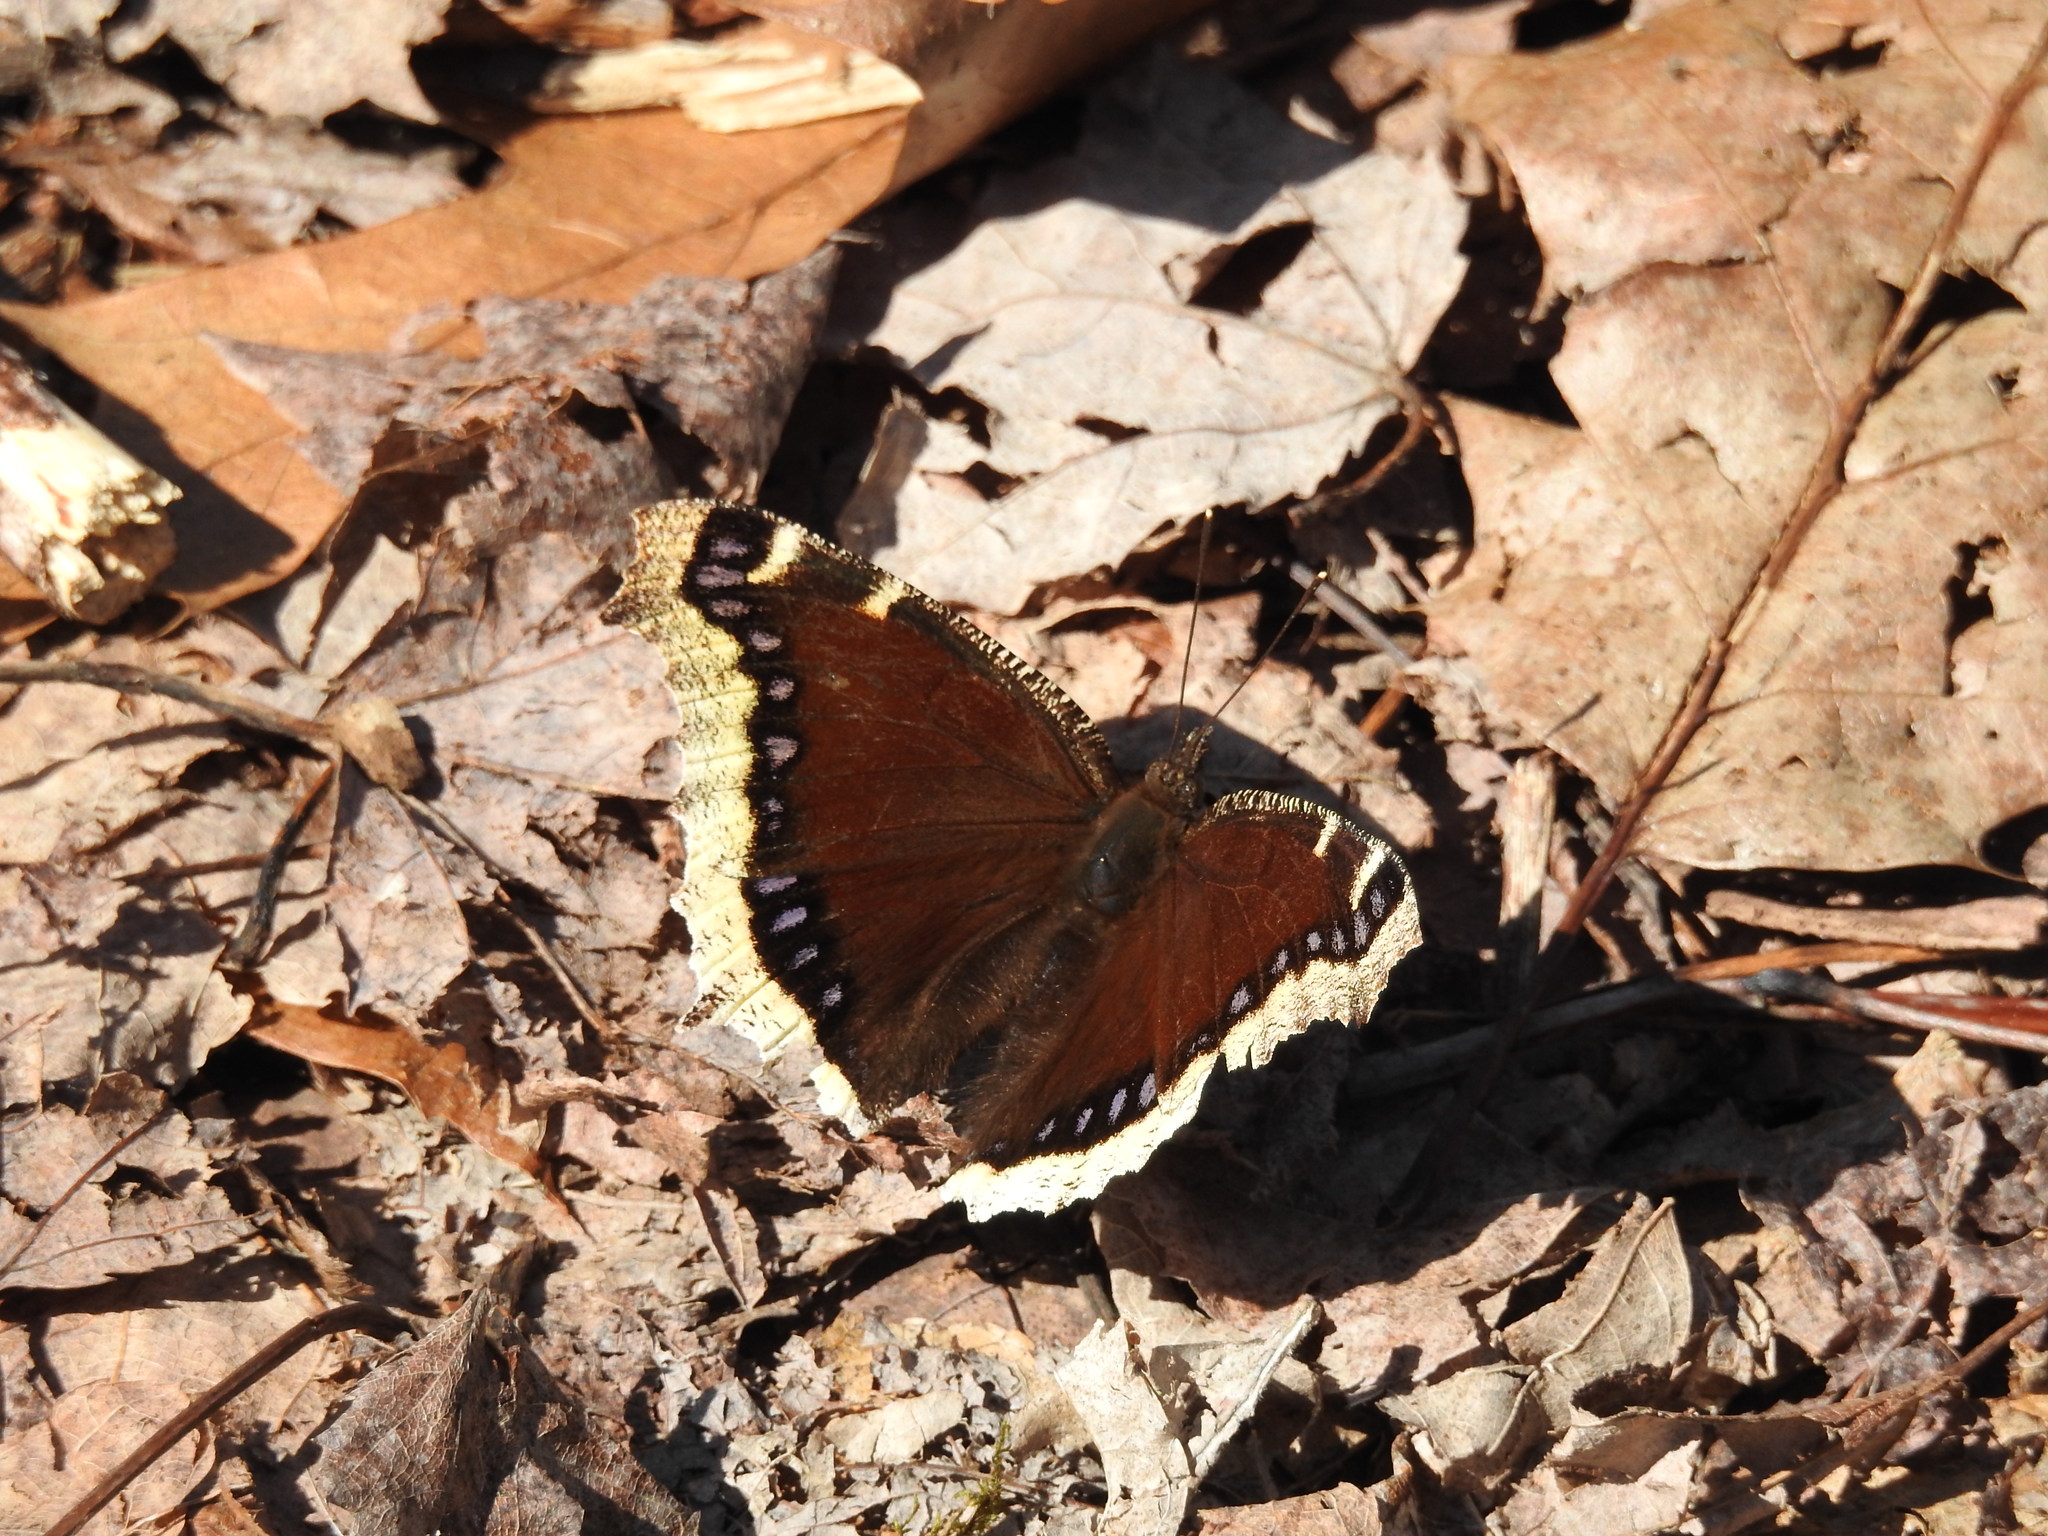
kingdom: Animalia
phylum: Arthropoda
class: Insecta
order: Lepidoptera
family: Nymphalidae
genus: Nymphalis
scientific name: Nymphalis antiopa
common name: Camberwell beauty
